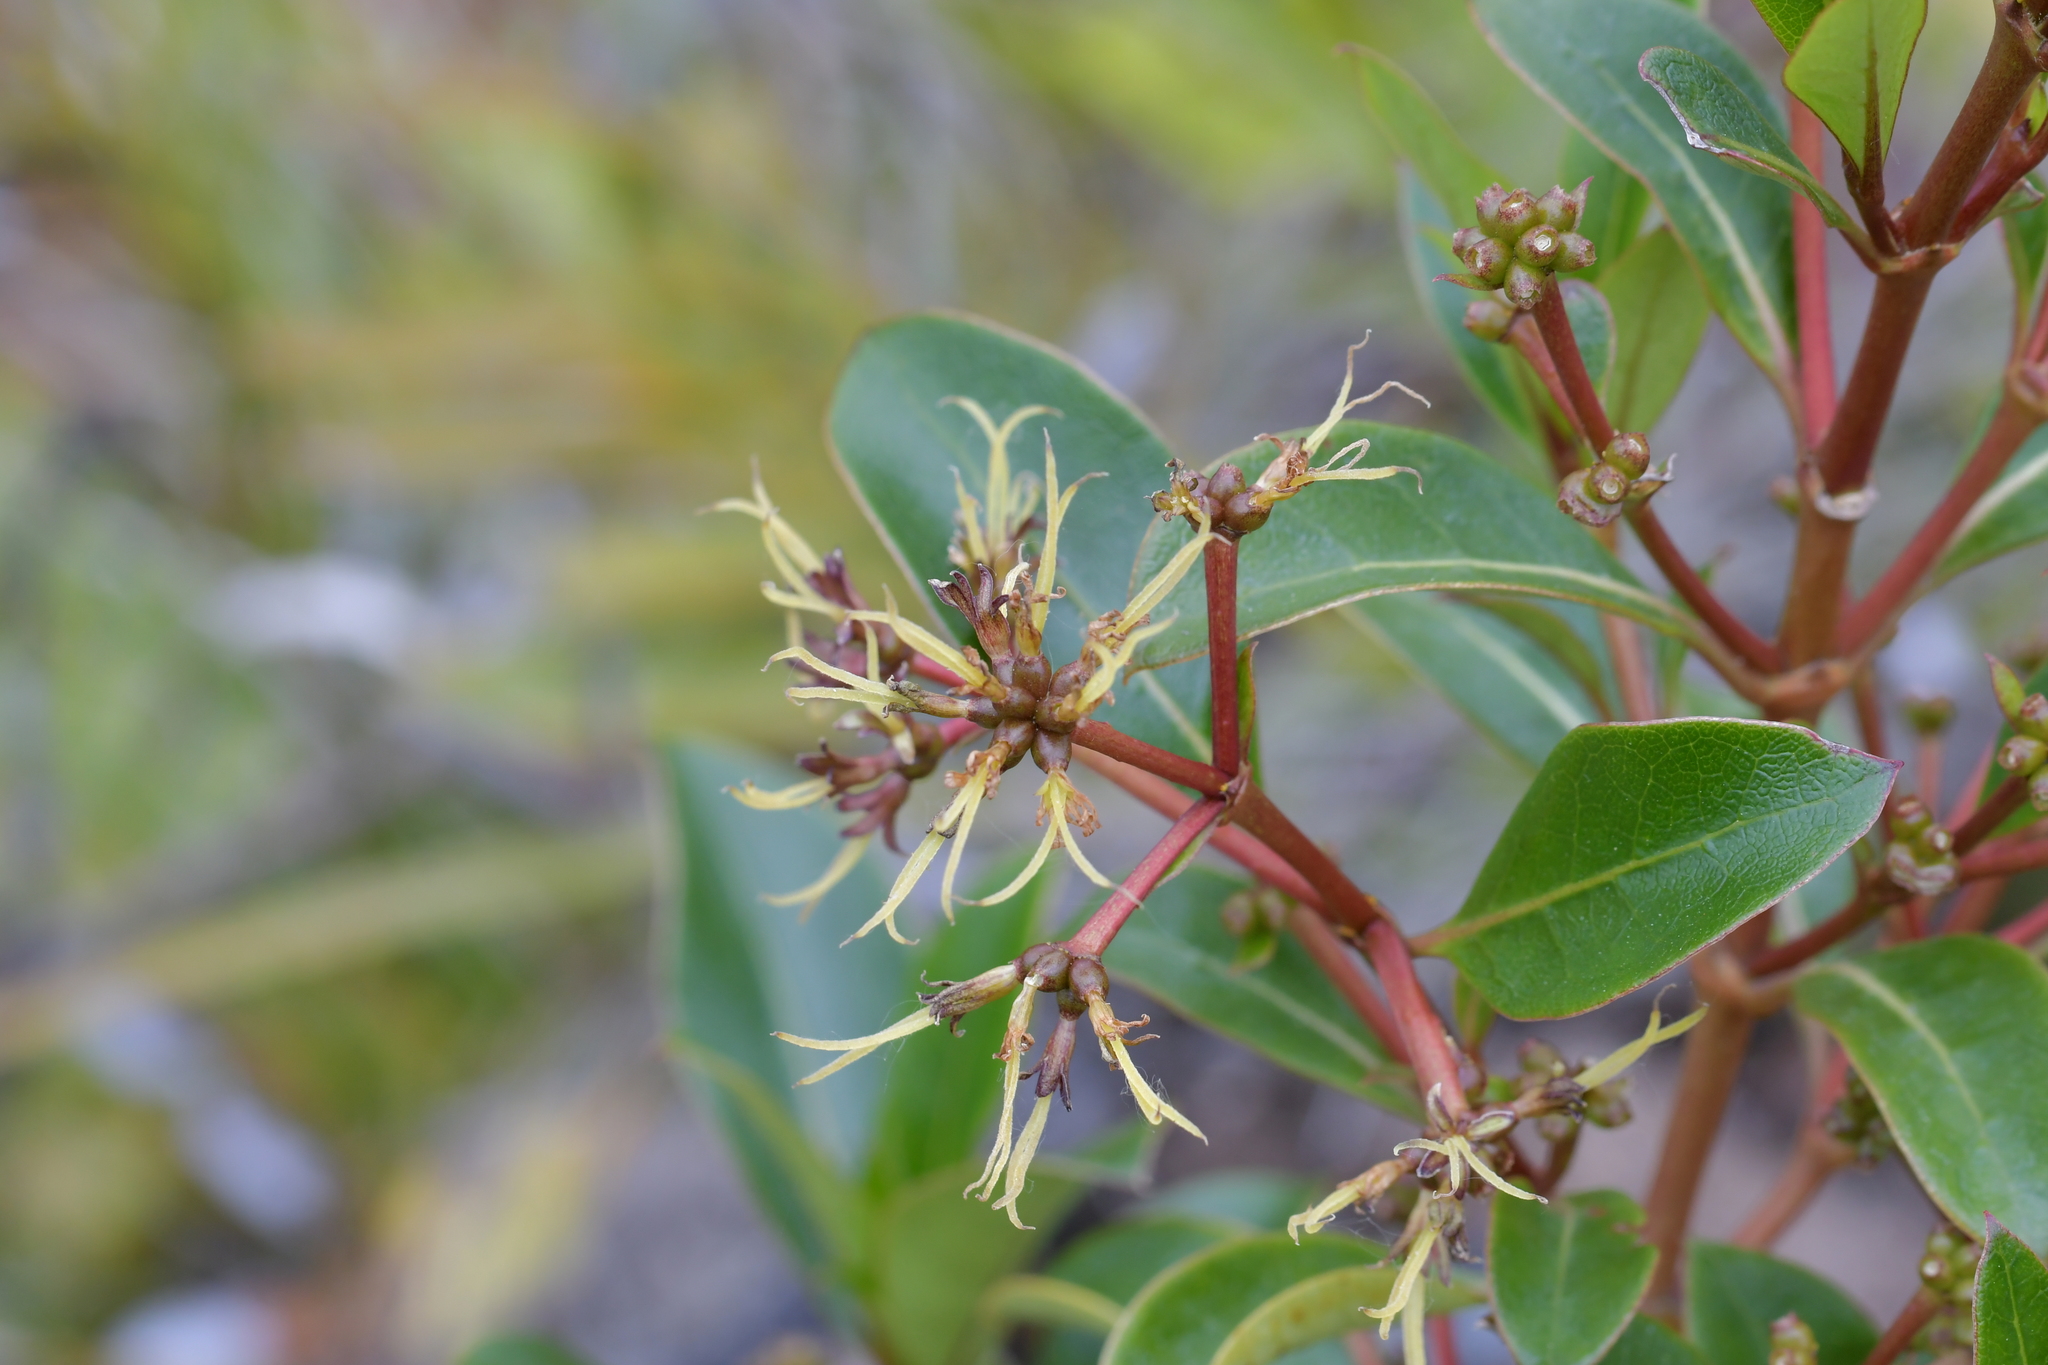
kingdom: Plantae
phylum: Tracheophyta
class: Magnoliopsida
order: Gentianales
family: Rubiaceae
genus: Coprosma
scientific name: Coprosma lucida
